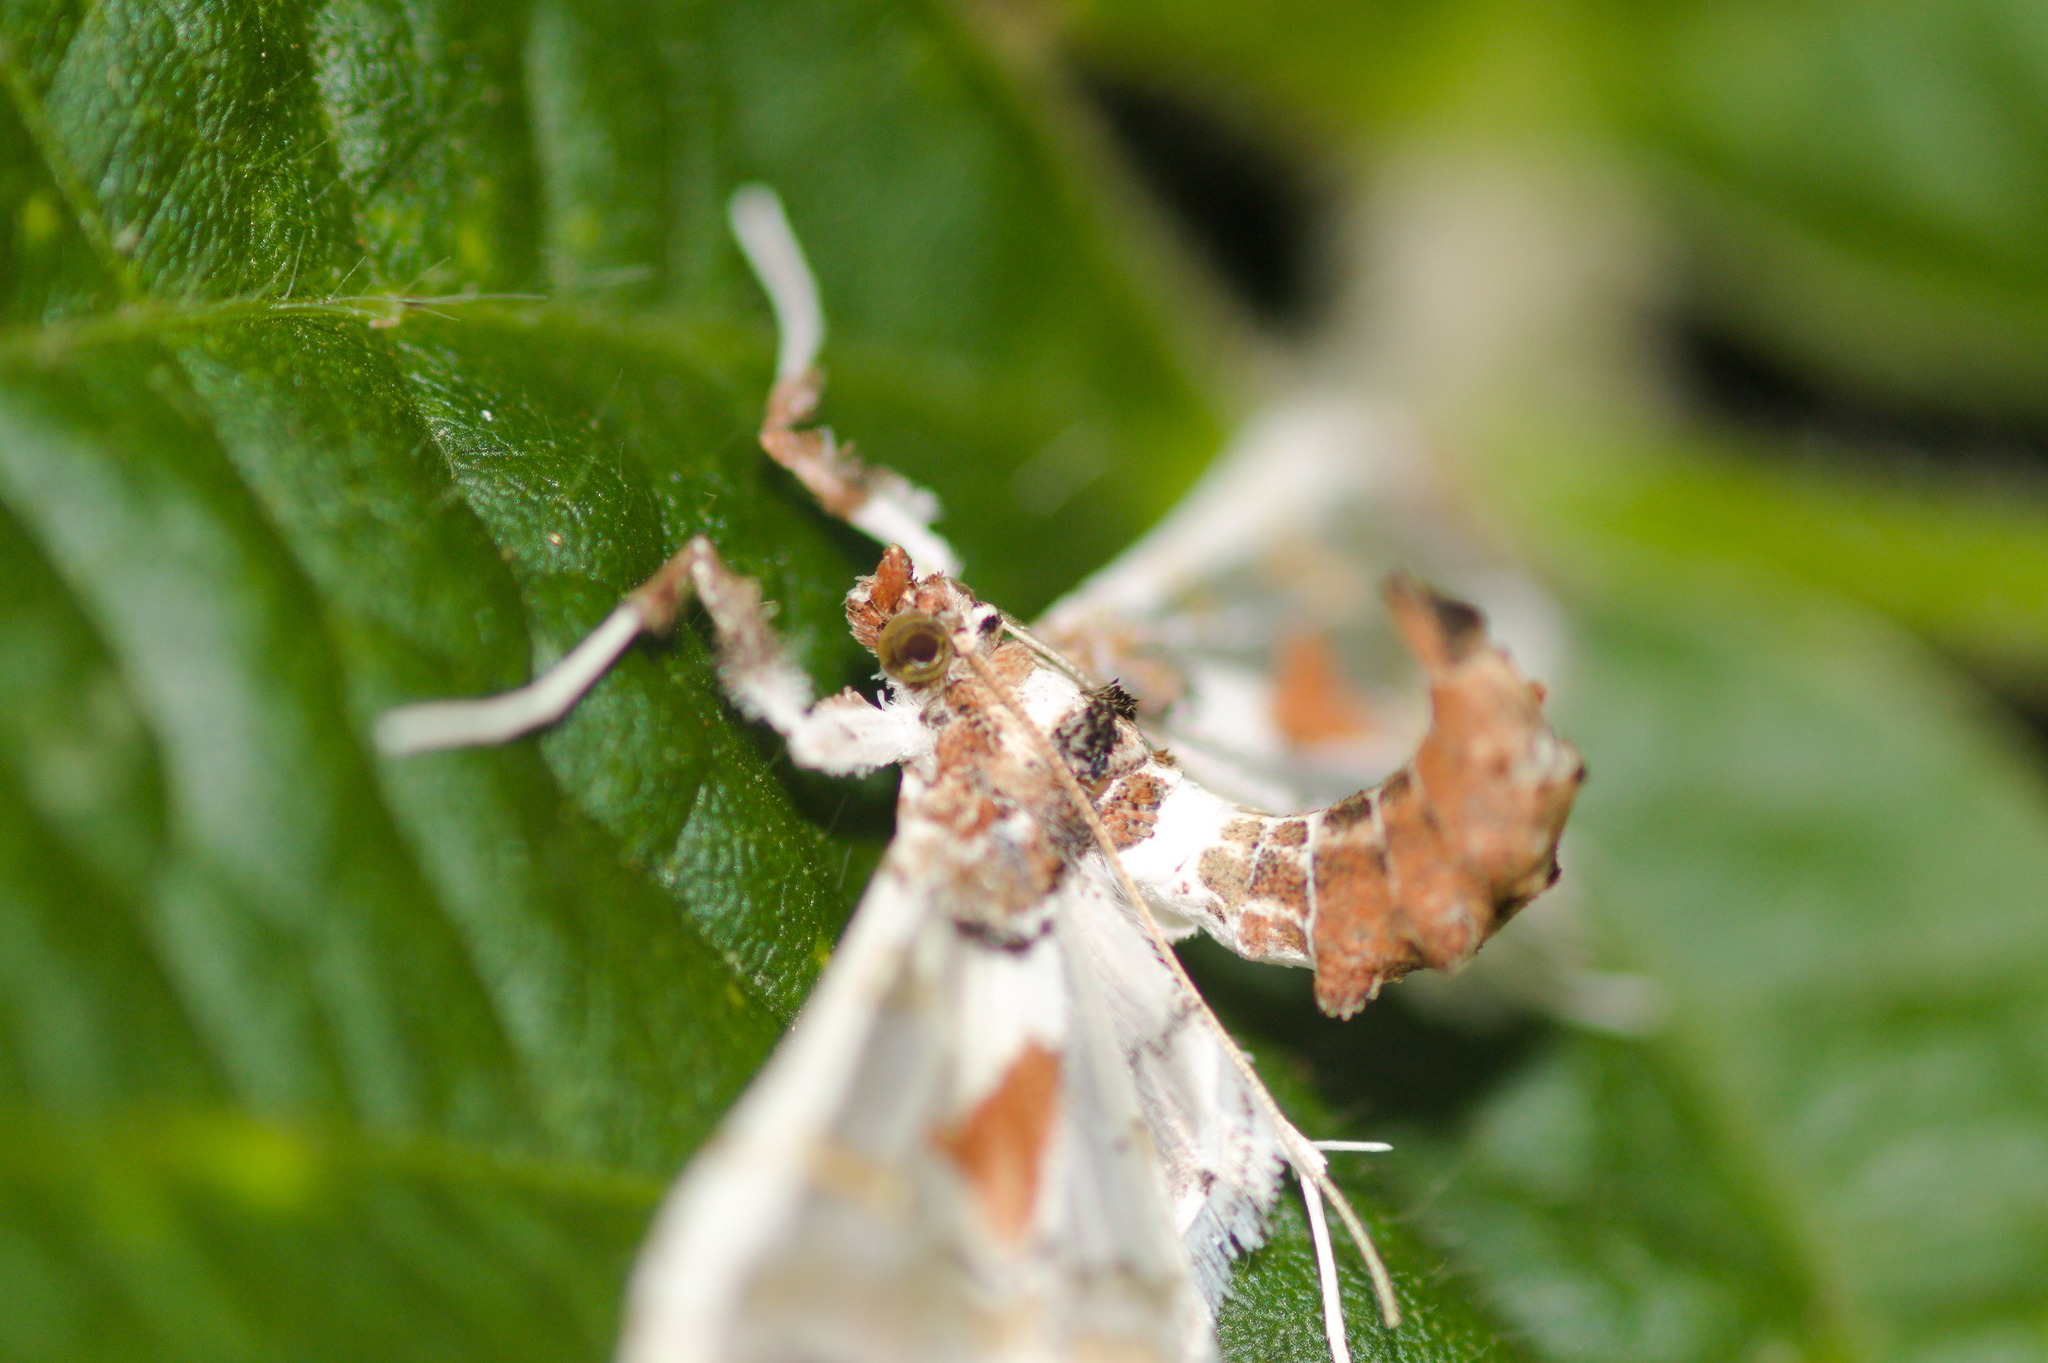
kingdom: Animalia
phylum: Arthropoda
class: Insecta
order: Lepidoptera
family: Crambidae
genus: Neoleucinodes
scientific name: Neoleucinodes elegantalis
